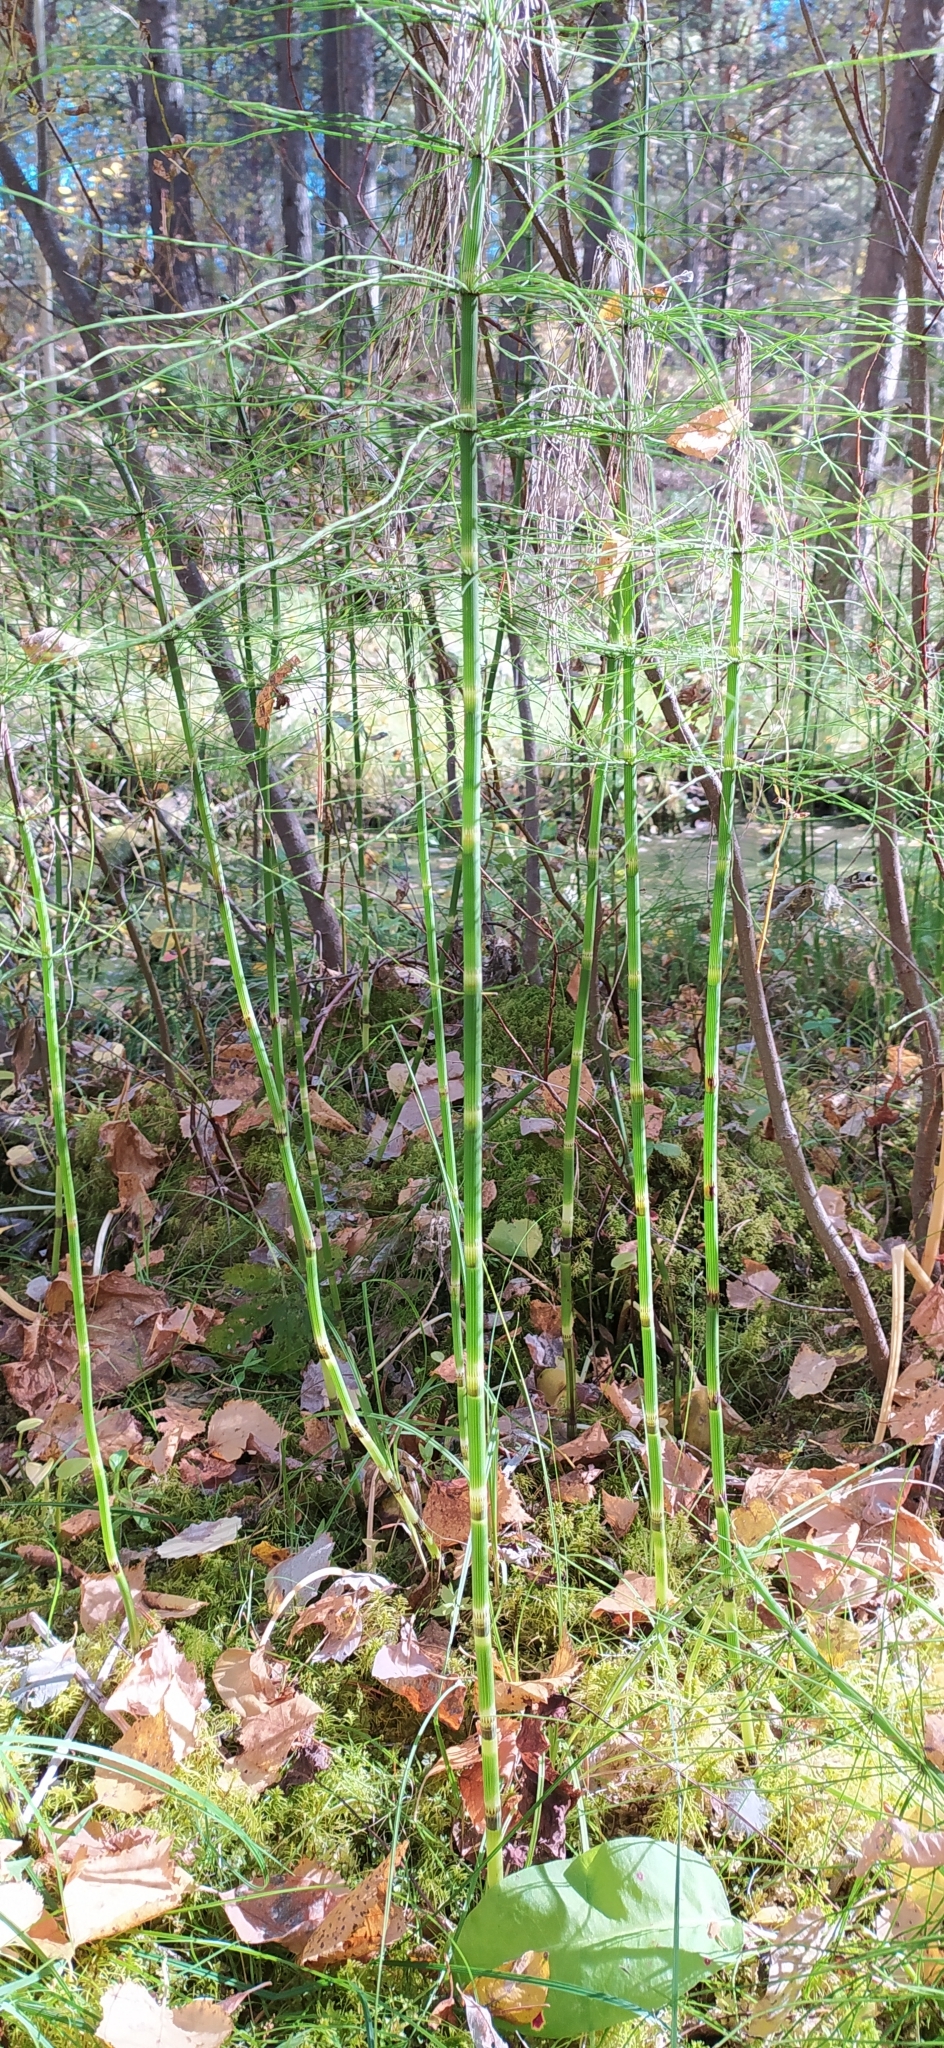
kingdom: Plantae
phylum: Tracheophyta
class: Polypodiopsida
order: Equisetales
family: Equisetaceae
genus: Equisetum
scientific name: Equisetum fluviatile
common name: Water horsetail
